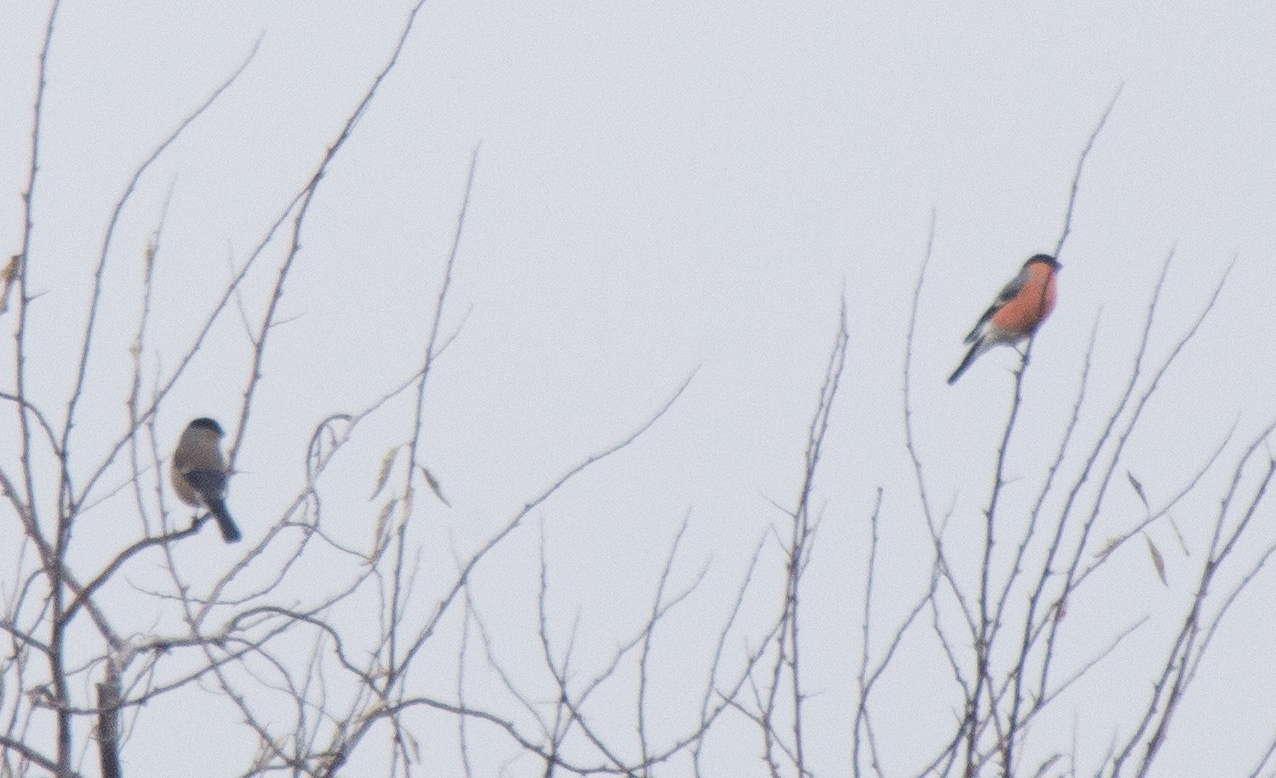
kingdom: Animalia
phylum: Chordata
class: Aves
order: Passeriformes
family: Fringillidae
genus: Pyrrhula
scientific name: Pyrrhula pyrrhula
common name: Eurasian bullfinch
